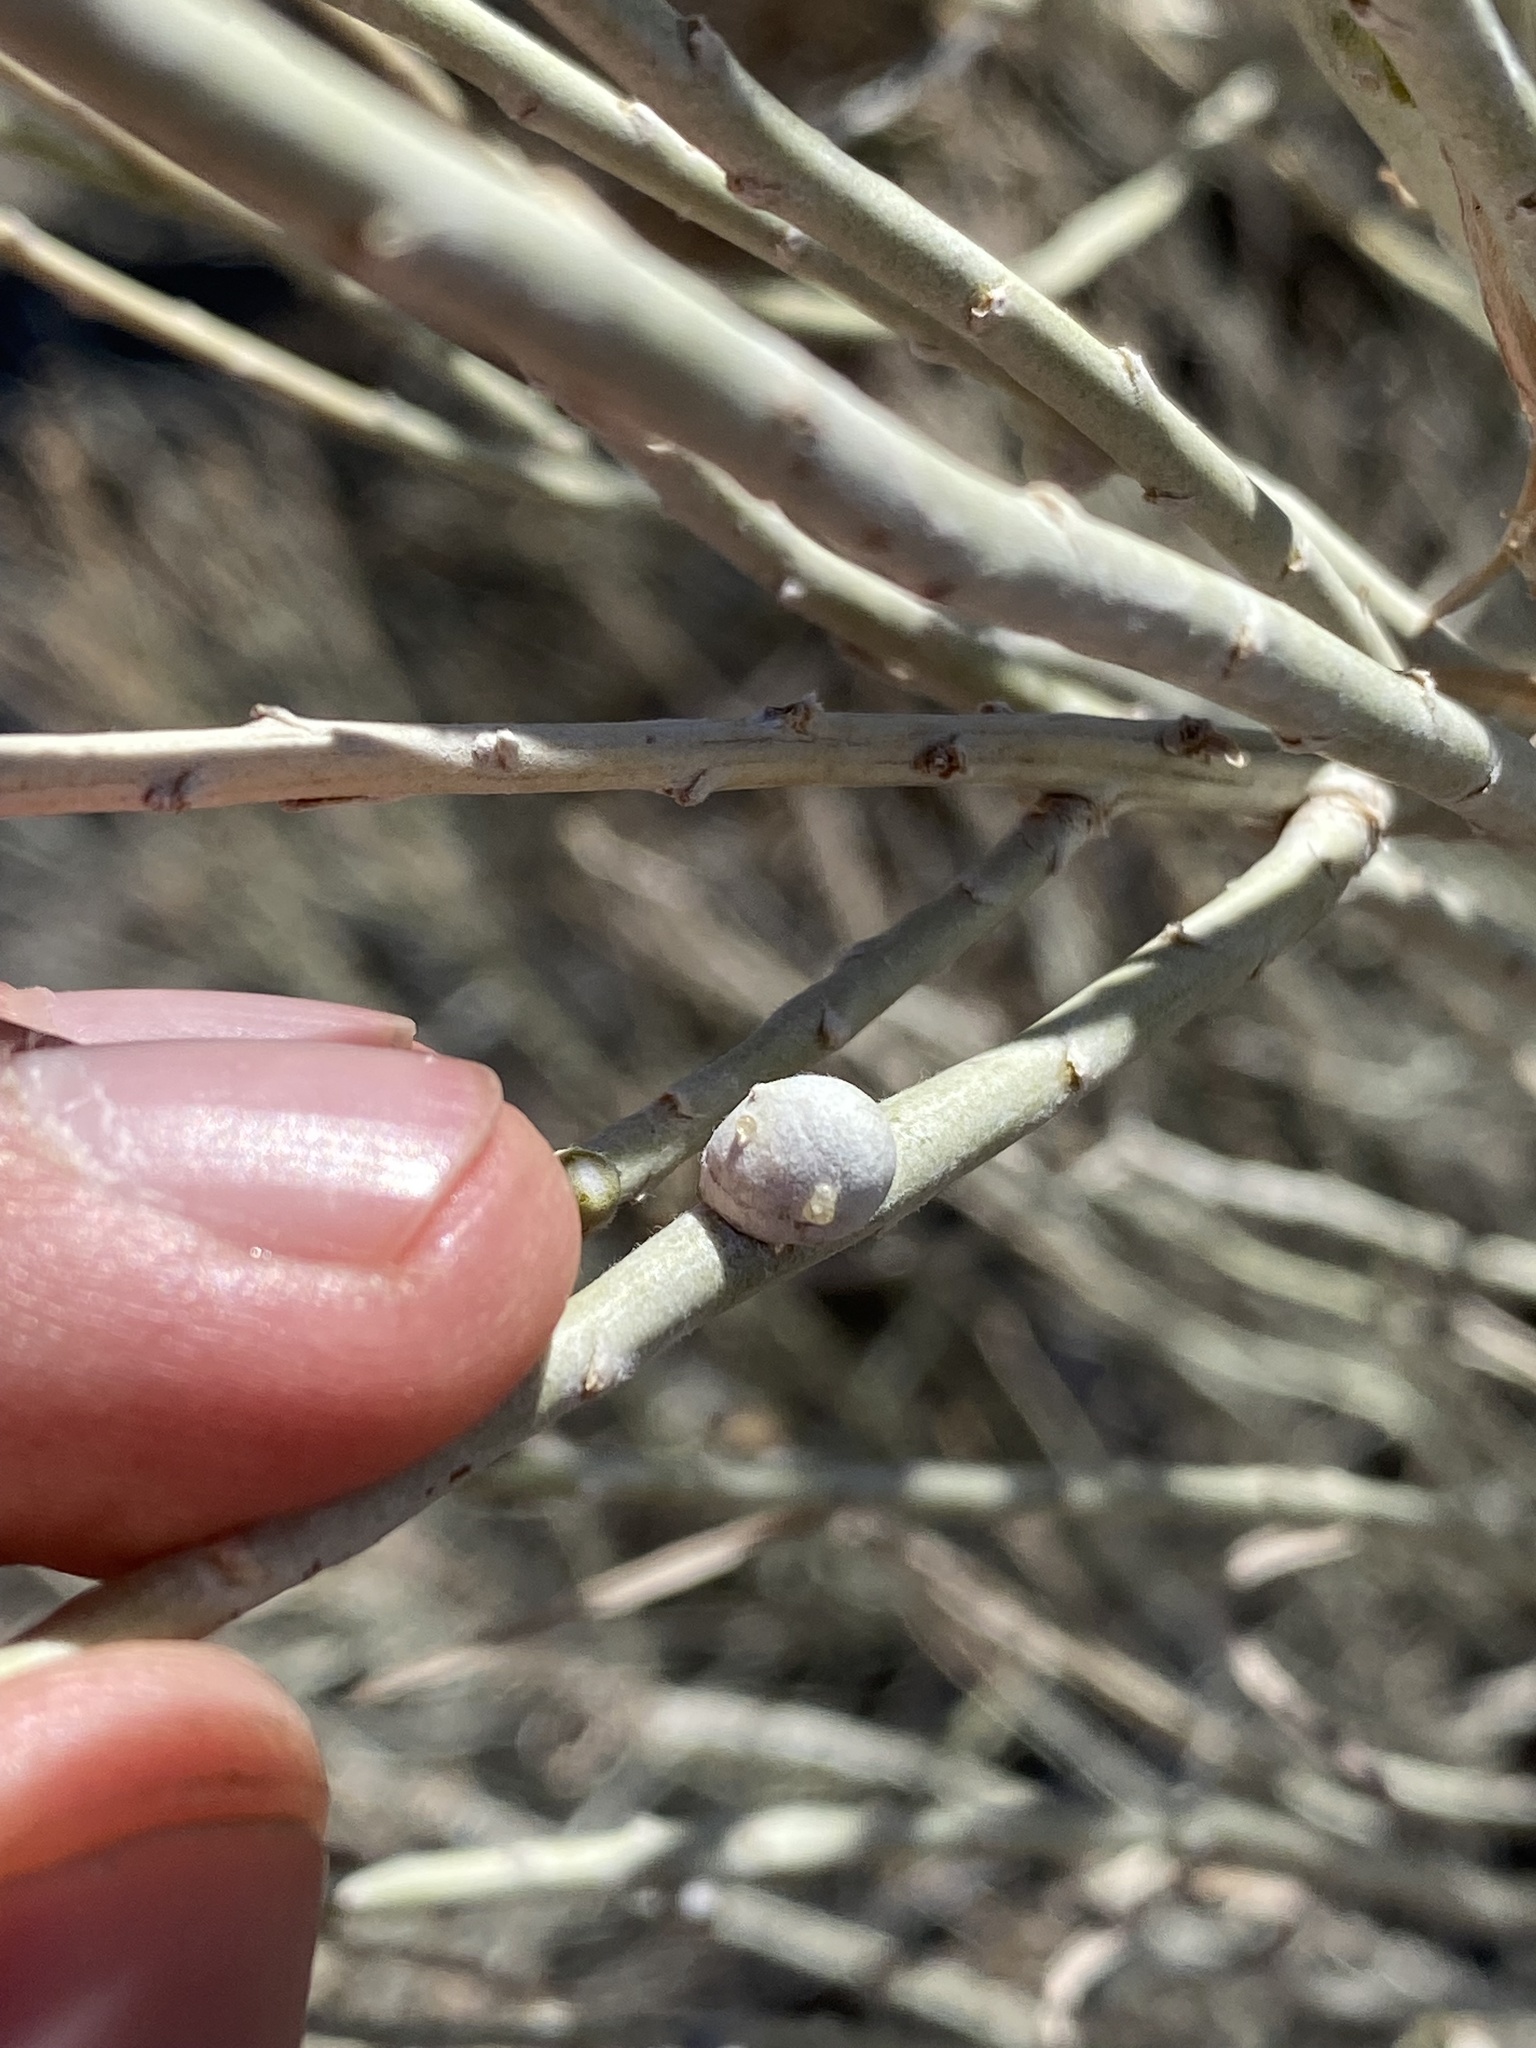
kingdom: Animalia
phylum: Arthropoda
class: Insecta
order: Diptera
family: Tephritidae
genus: Aciurina
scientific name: Aciurina trixa
